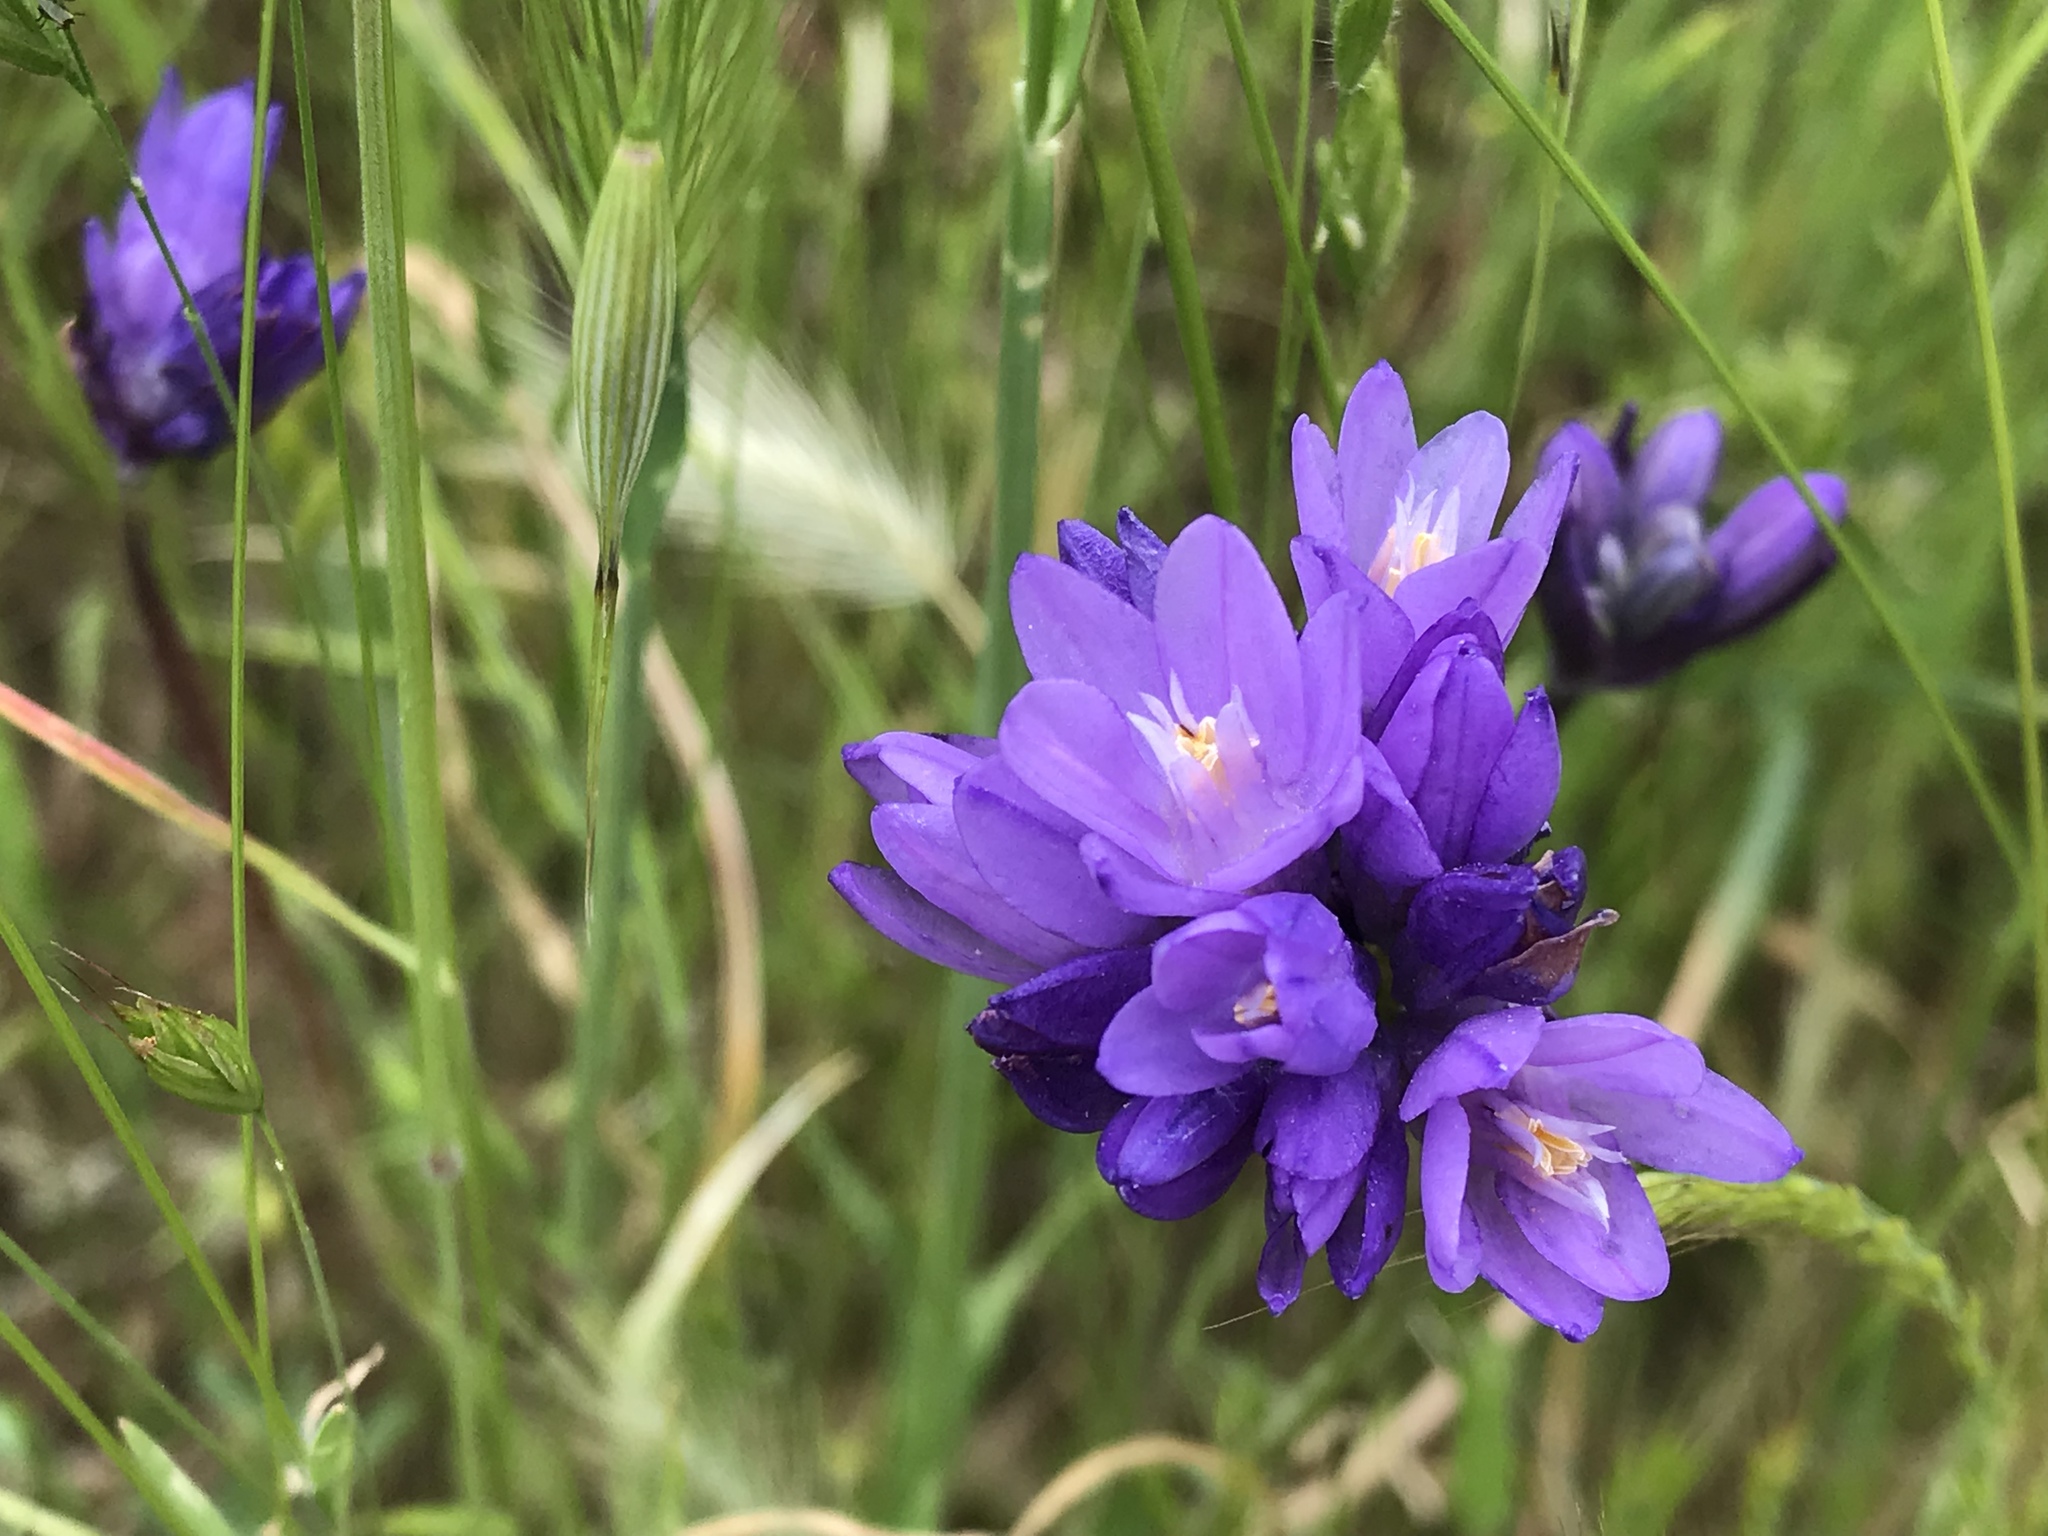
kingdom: Plantae
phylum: Tracheophyta
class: Liliopsida
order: Asparagales
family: Asparagaceae
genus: Dipterostemon
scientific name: Dipterostemon capitatus
